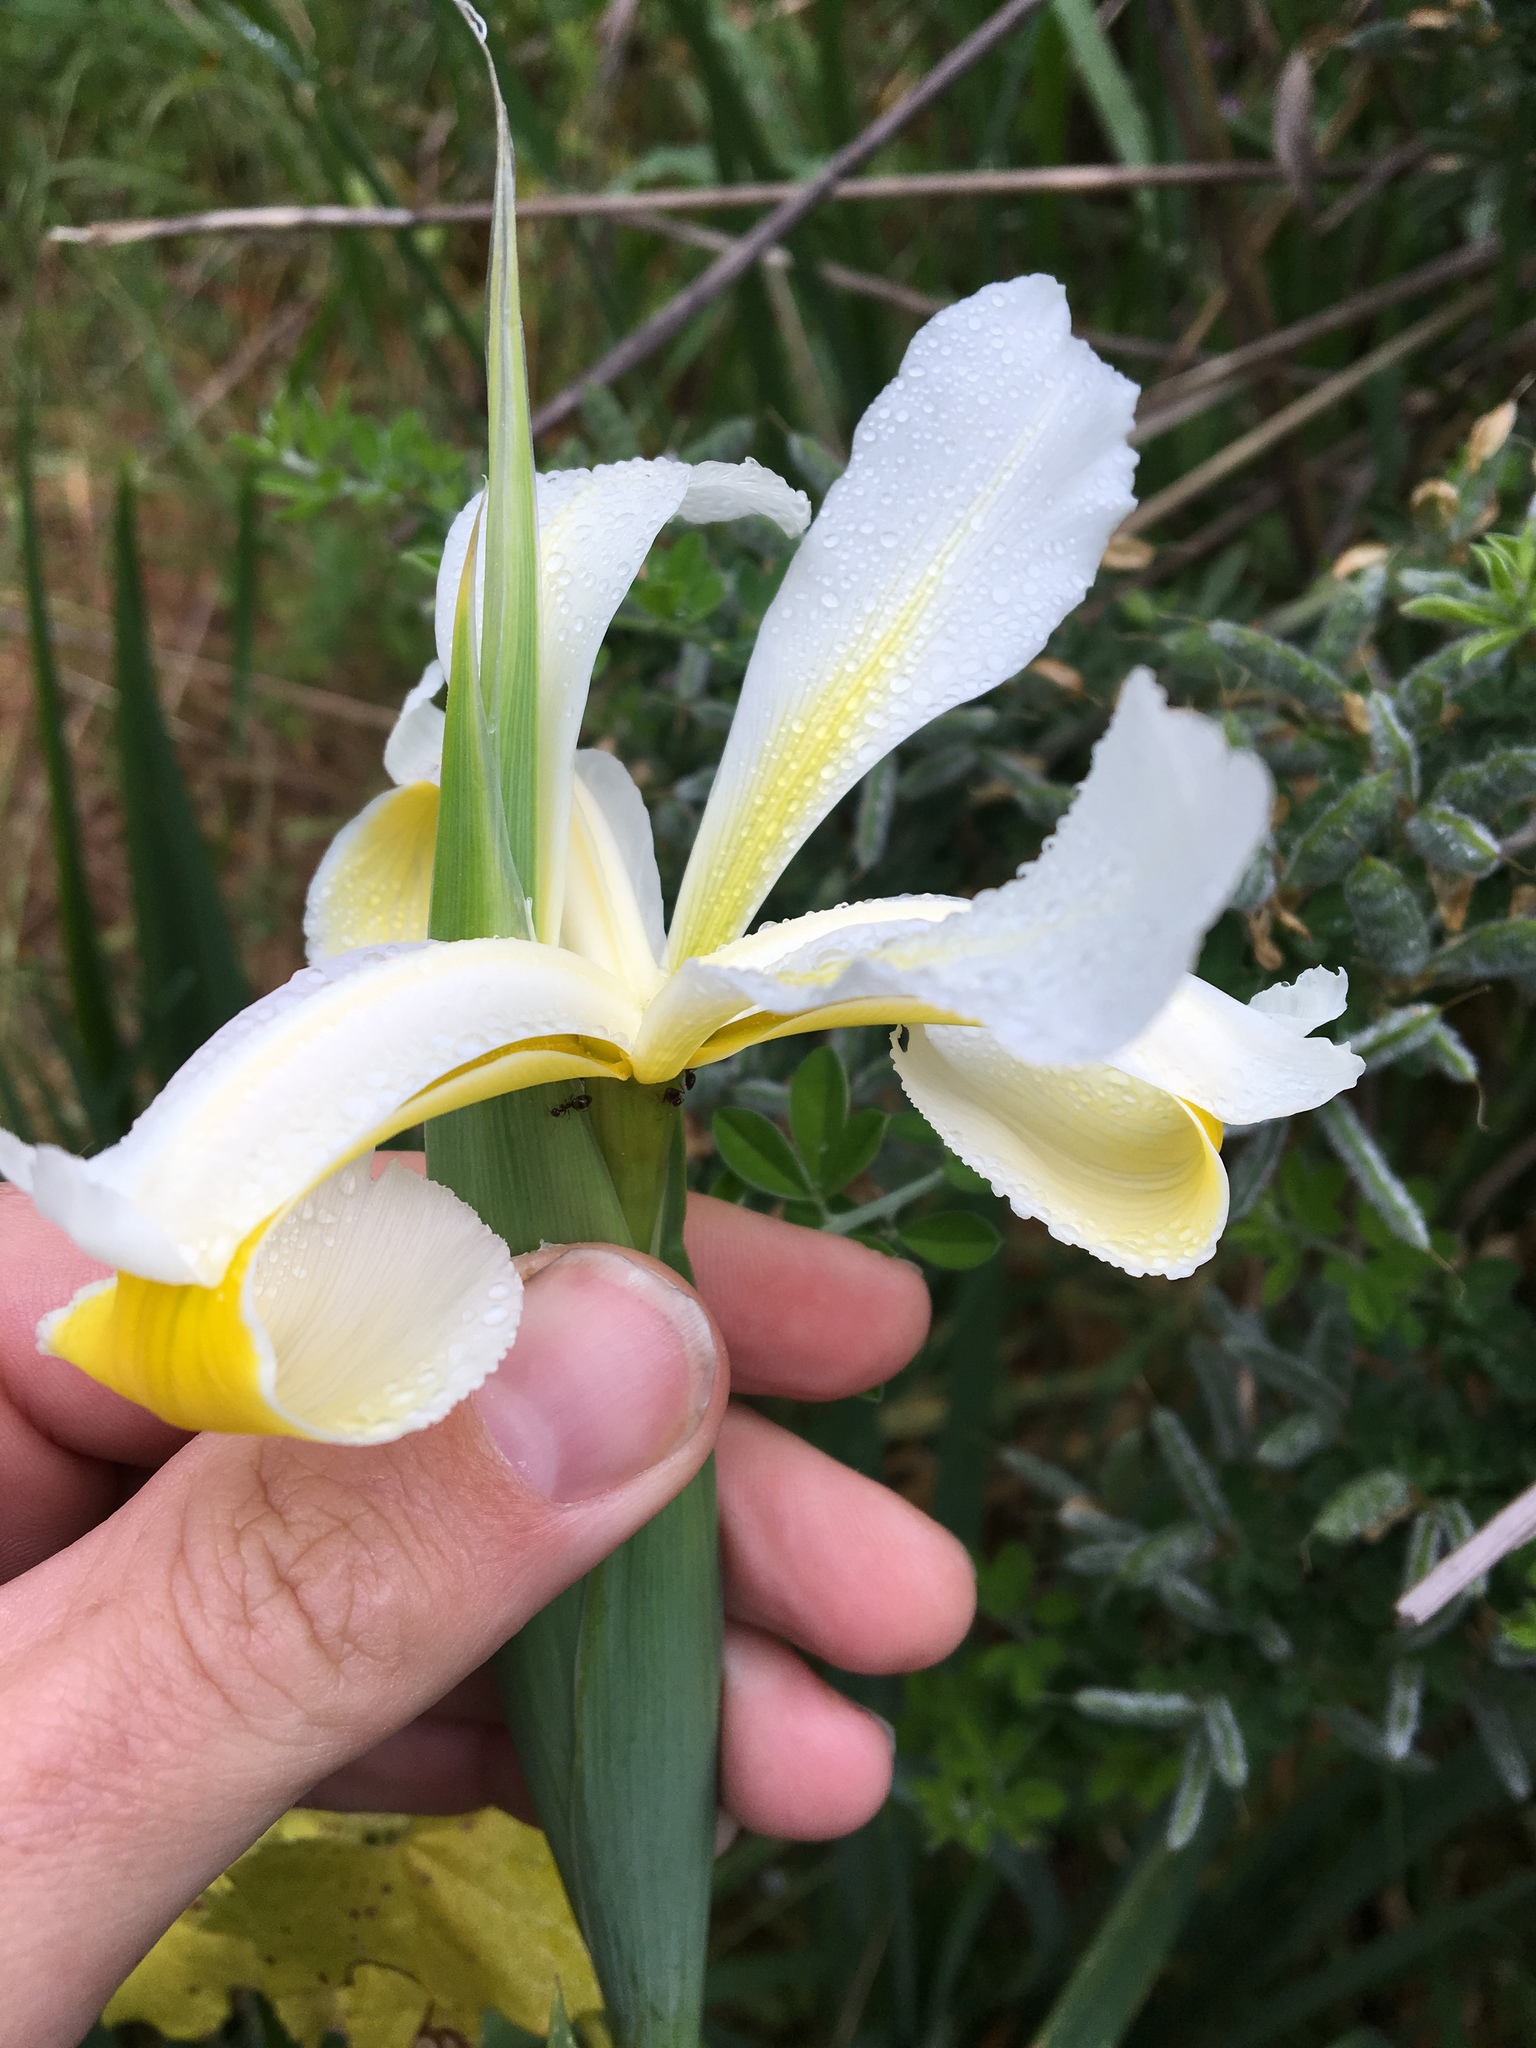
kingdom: Plantae
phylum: Tracheophyta
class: Liliopsida
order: Asparagales
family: Iridaceae
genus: Iris
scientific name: Iris orientalis
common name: Turkish iris
